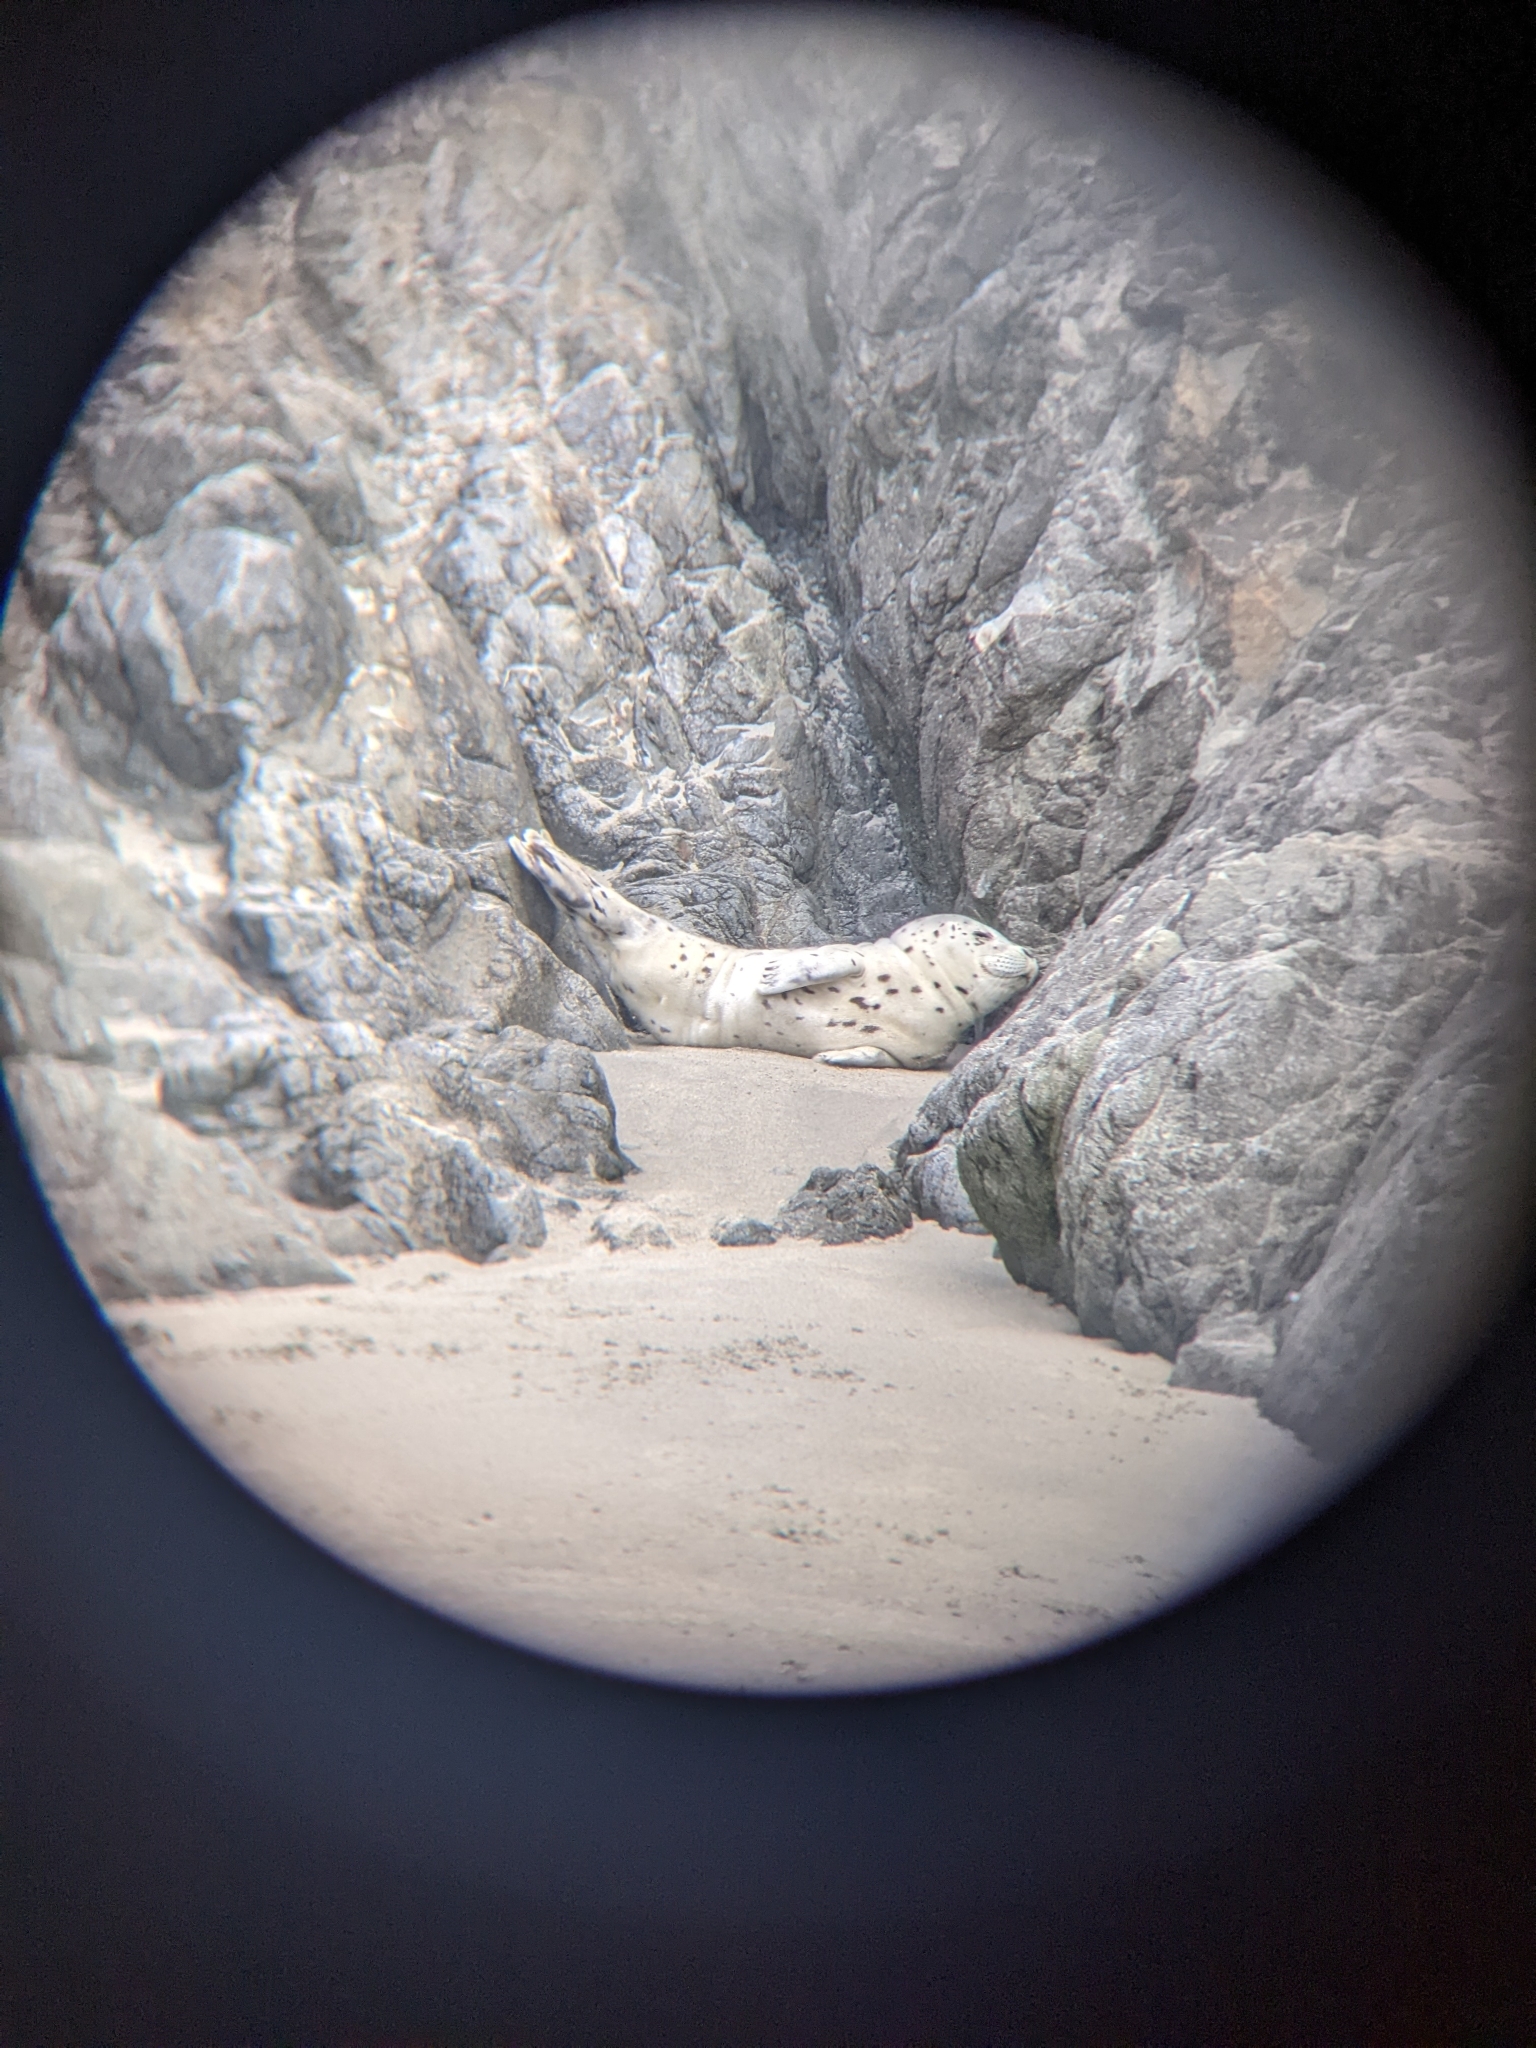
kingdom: Animalia
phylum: Chordata
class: Mammalia
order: Carnivora
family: Phocidae
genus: Phoca
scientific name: Phoca vitulina
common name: Harbor seal
